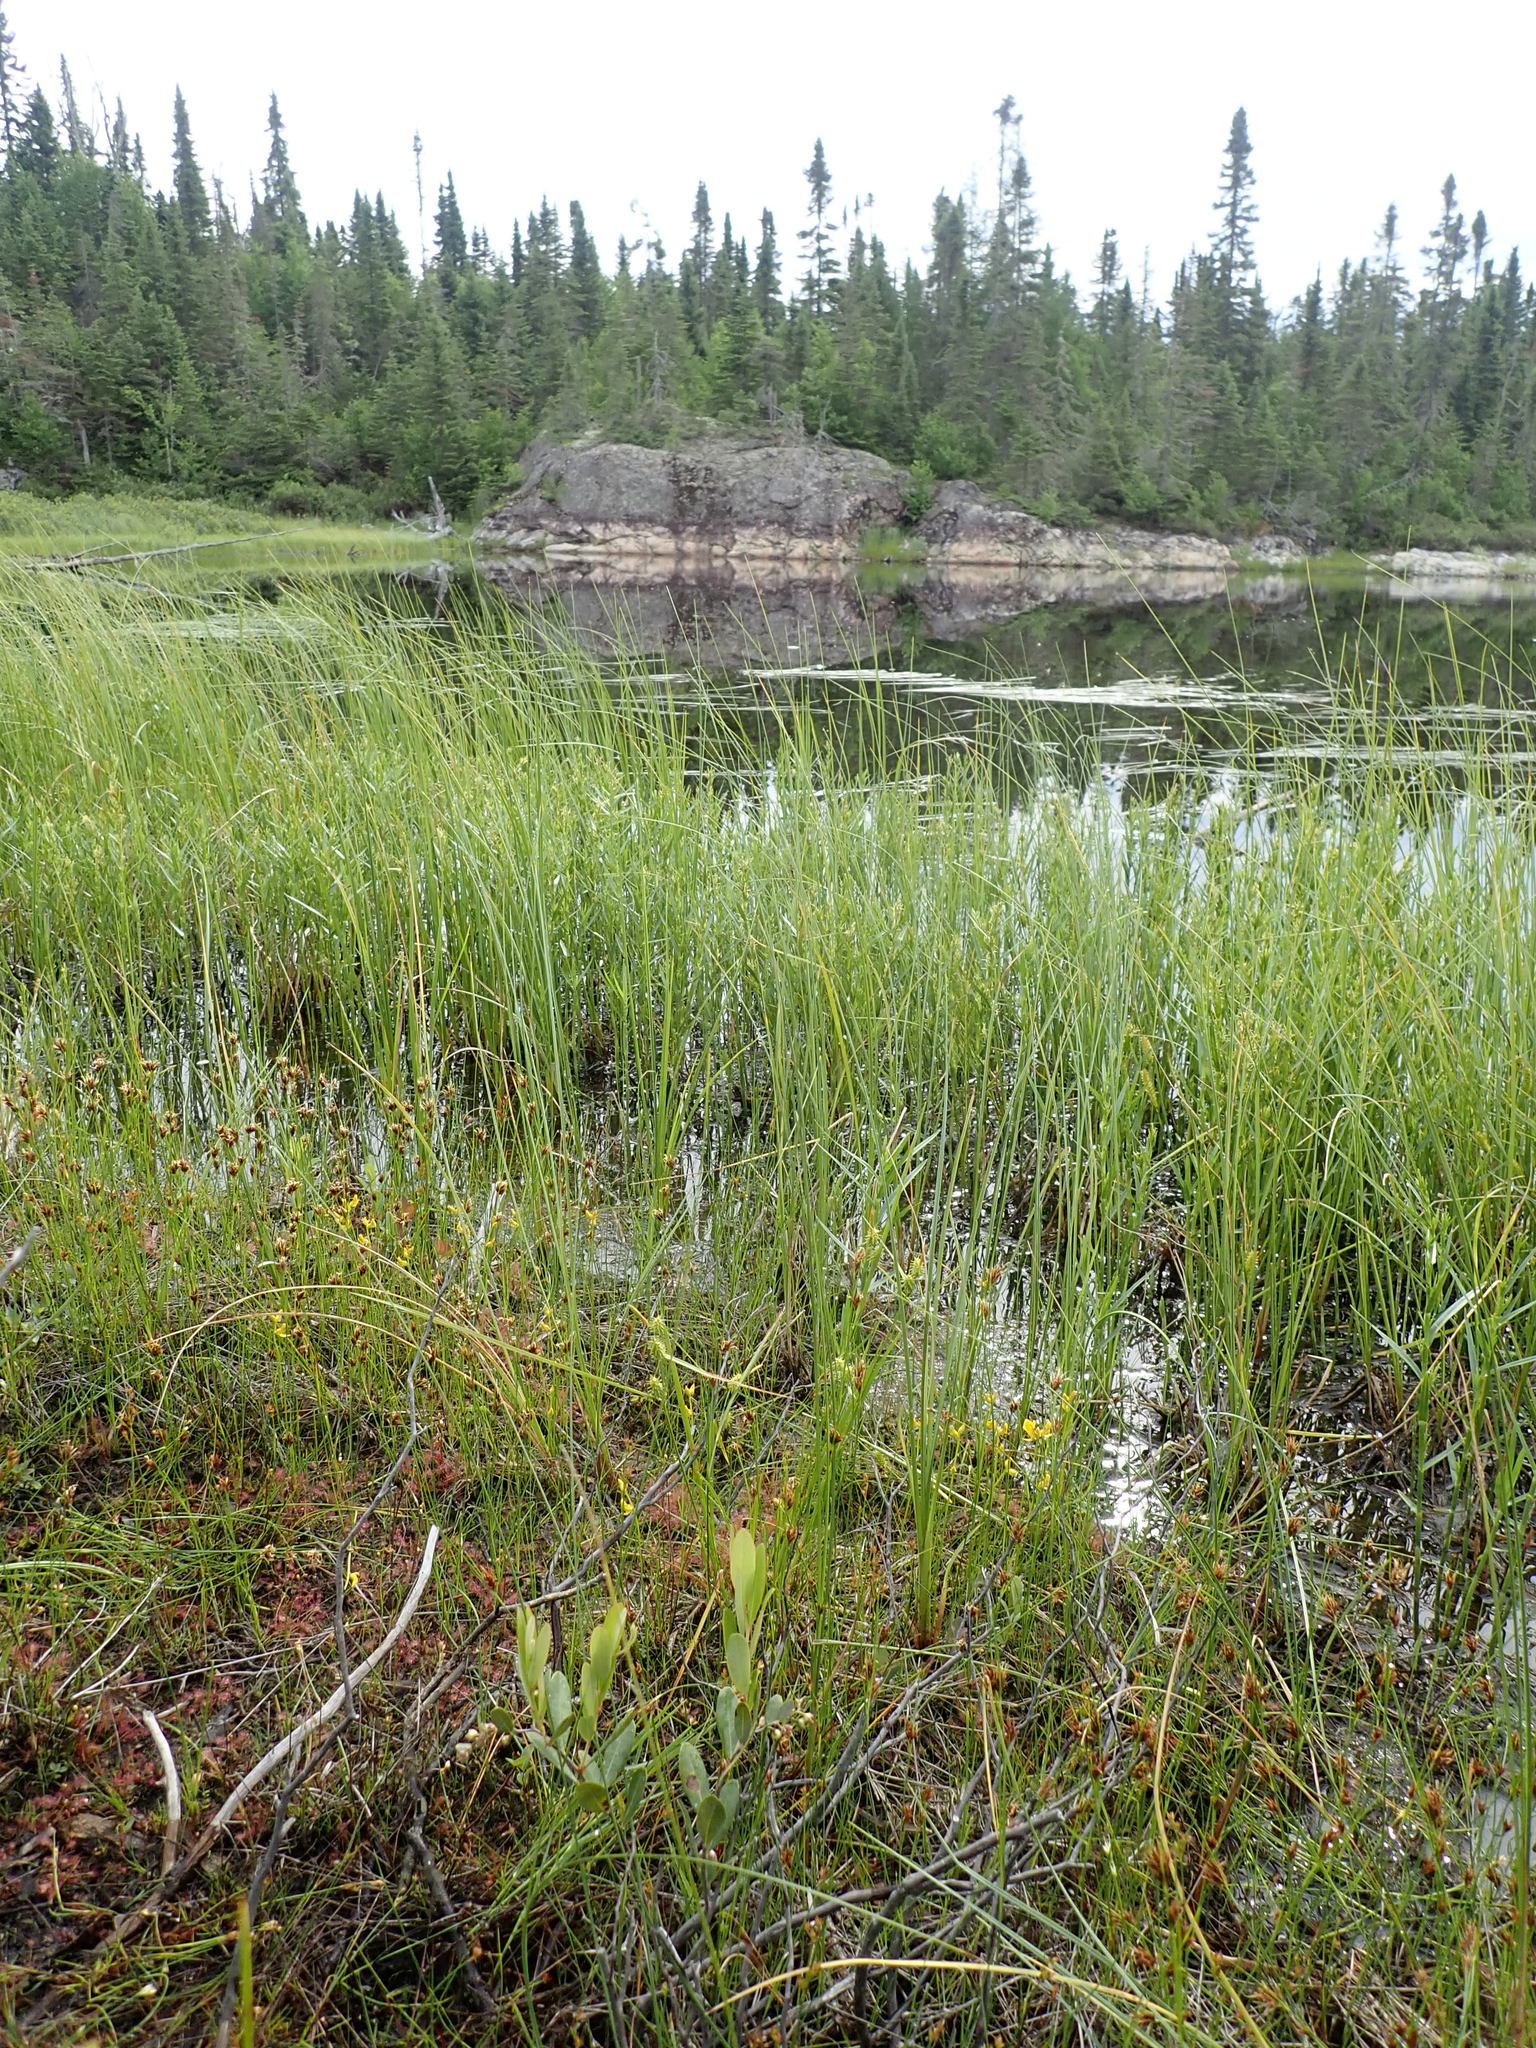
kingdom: Plantae
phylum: Tracheophyta
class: Magnoliopsida
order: Lamiales
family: Lentibulariaceae
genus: Utricularia
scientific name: Utricularia cornuta
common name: Horned bladderwort
